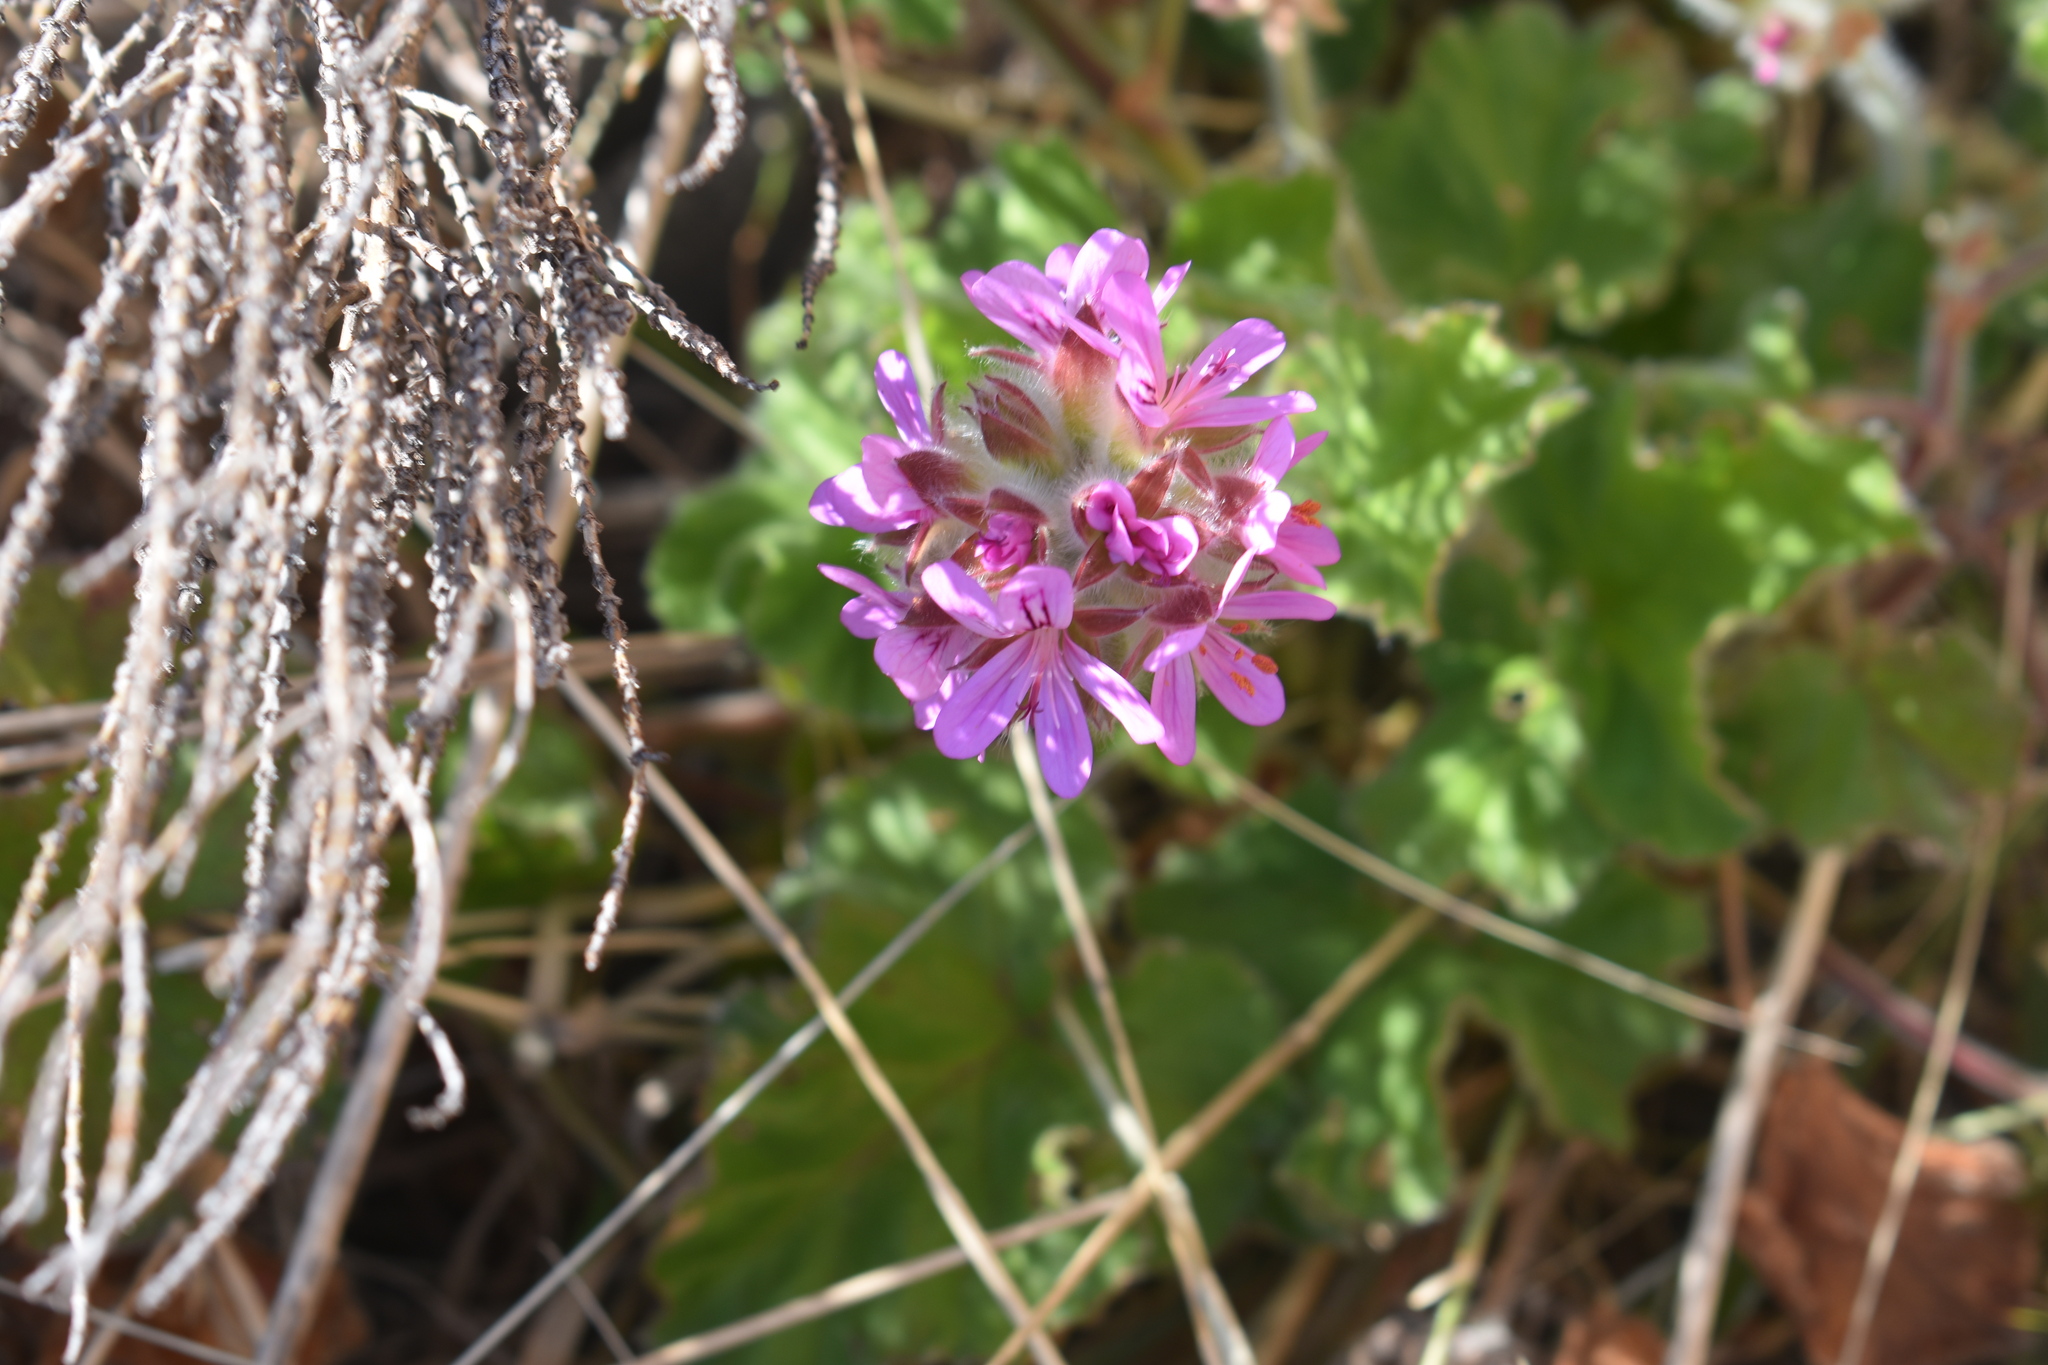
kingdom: Plantae
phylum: Tracheophyta
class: Magnoliopsida
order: Geraniales
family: Geraniaceae
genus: Pelargonium
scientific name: Pelargonium capitatum
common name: Rose scented geranium
